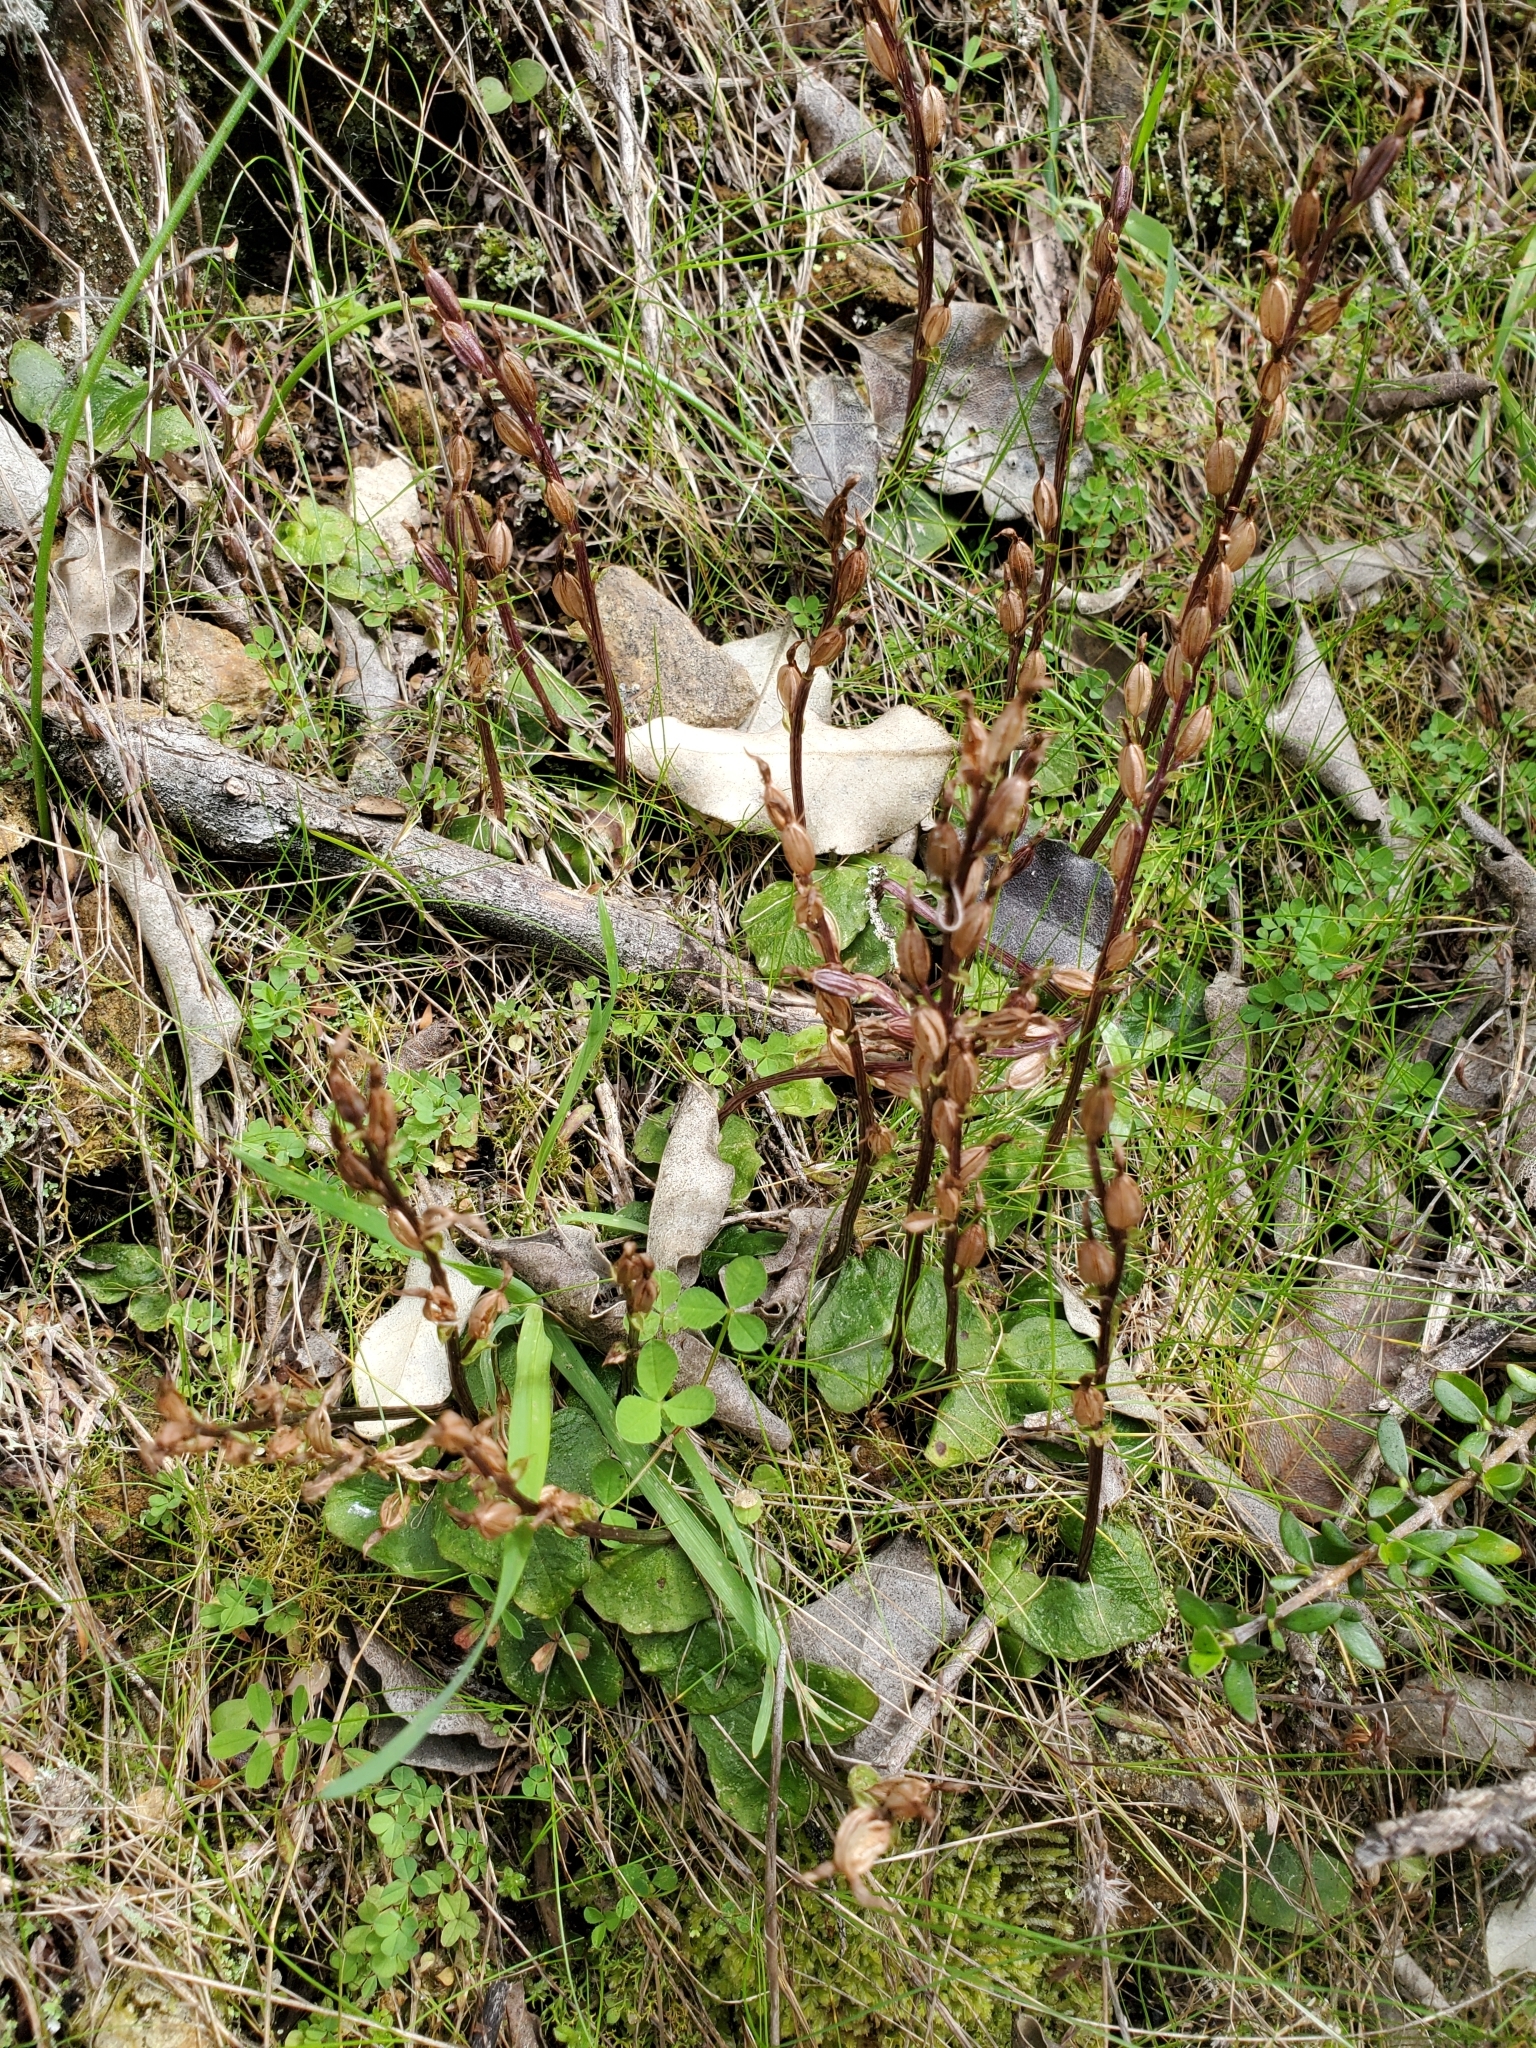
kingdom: Plantae
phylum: Tracheophyta
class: Liliopsida
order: Asparagales
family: Orchidaceae
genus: Acianthus
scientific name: Acianthus sinclairii
